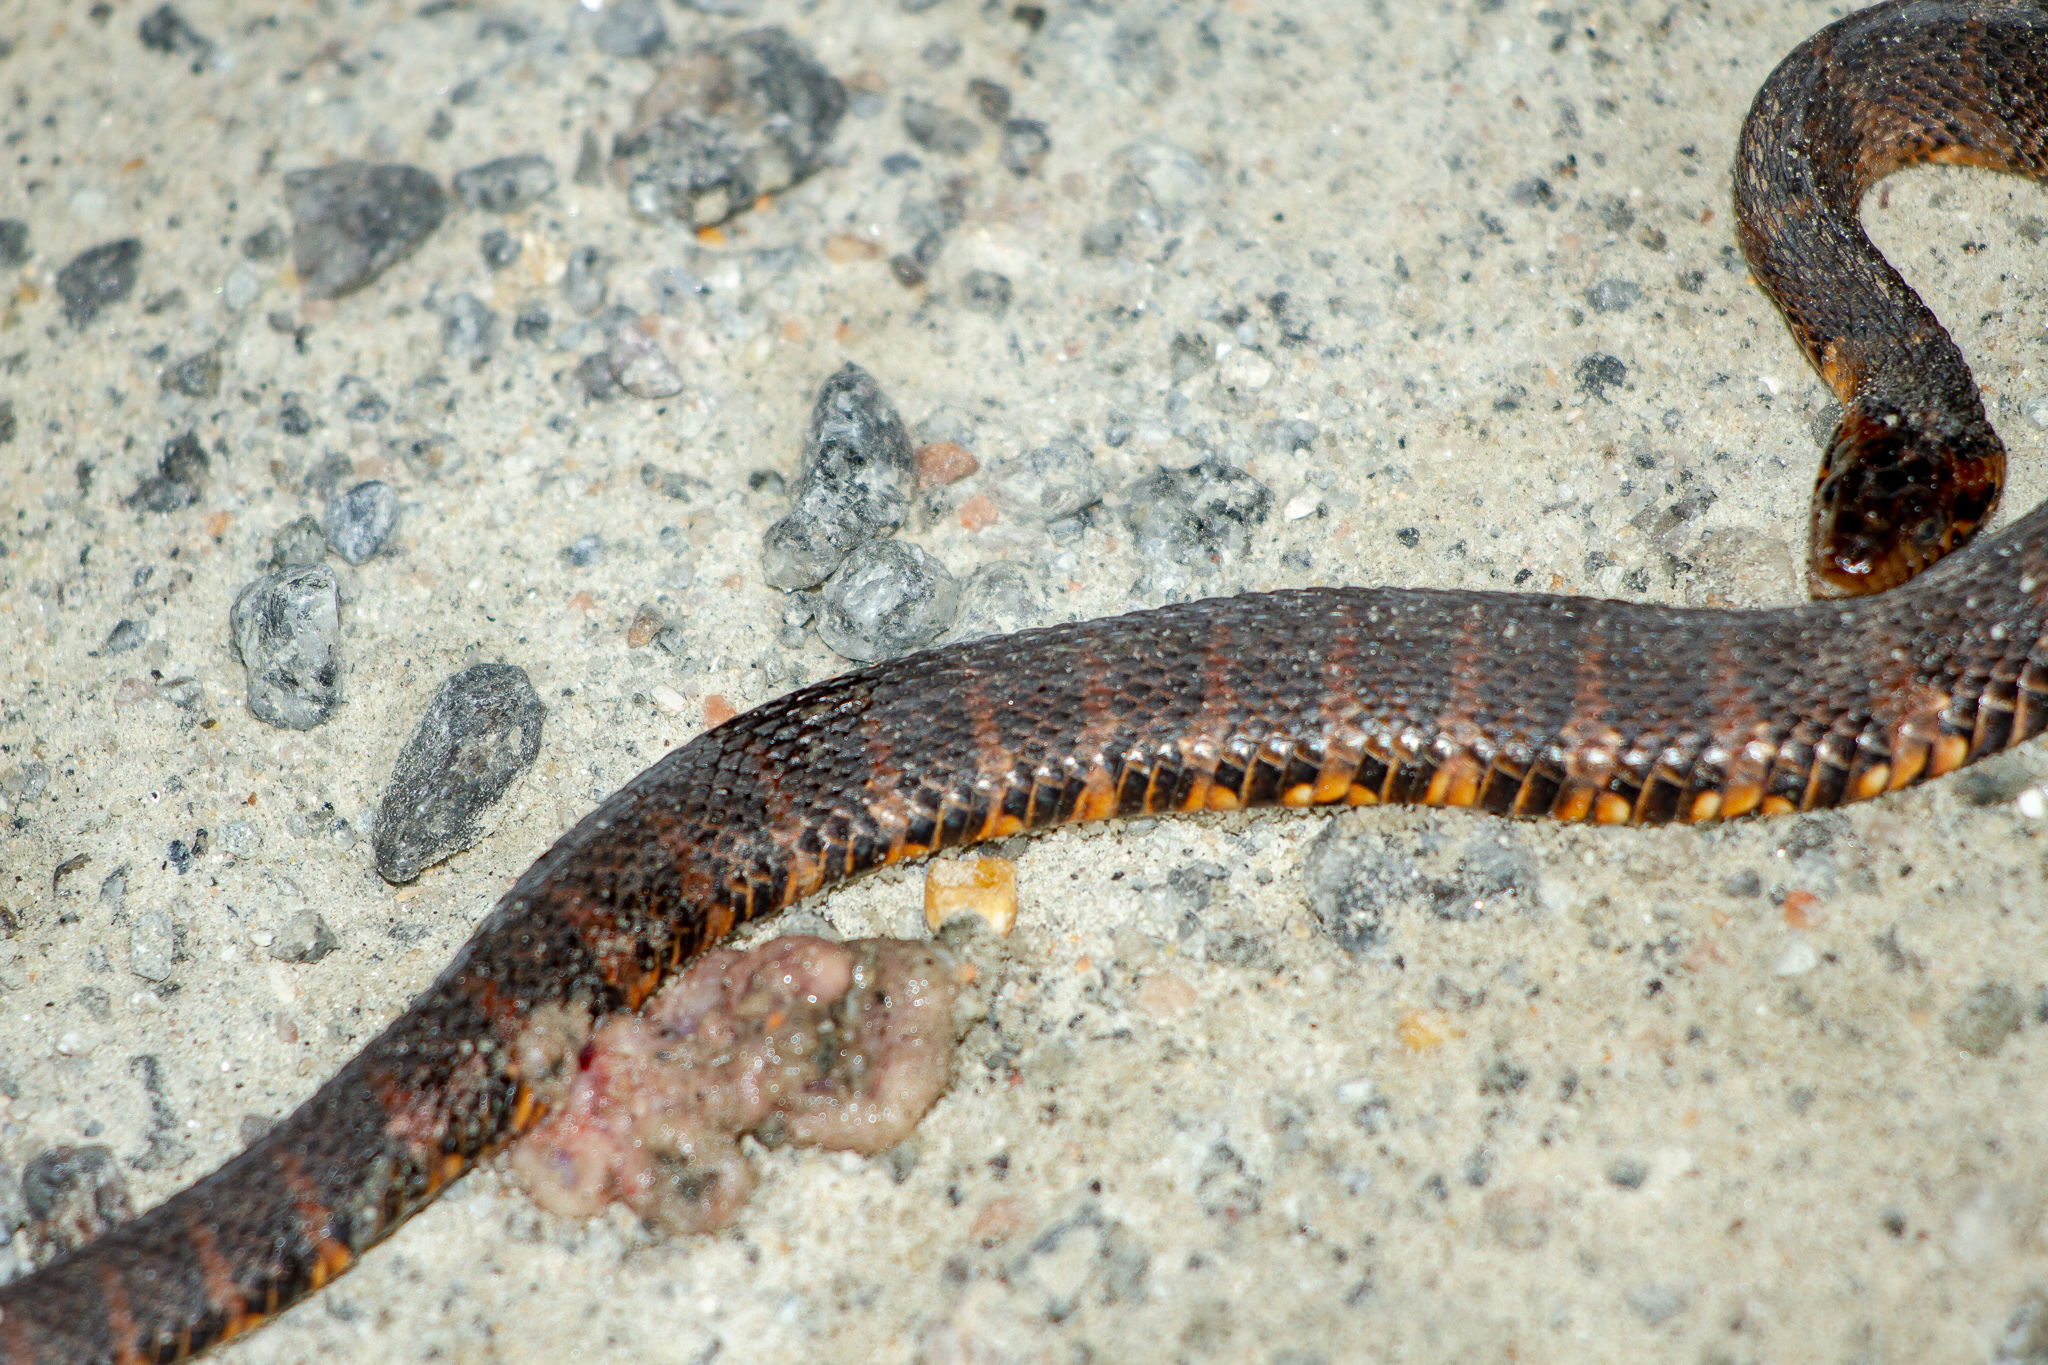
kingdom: Animalia
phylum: Chordata
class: Squamata
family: Colubridae
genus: Nerodia
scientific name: Nerodia
